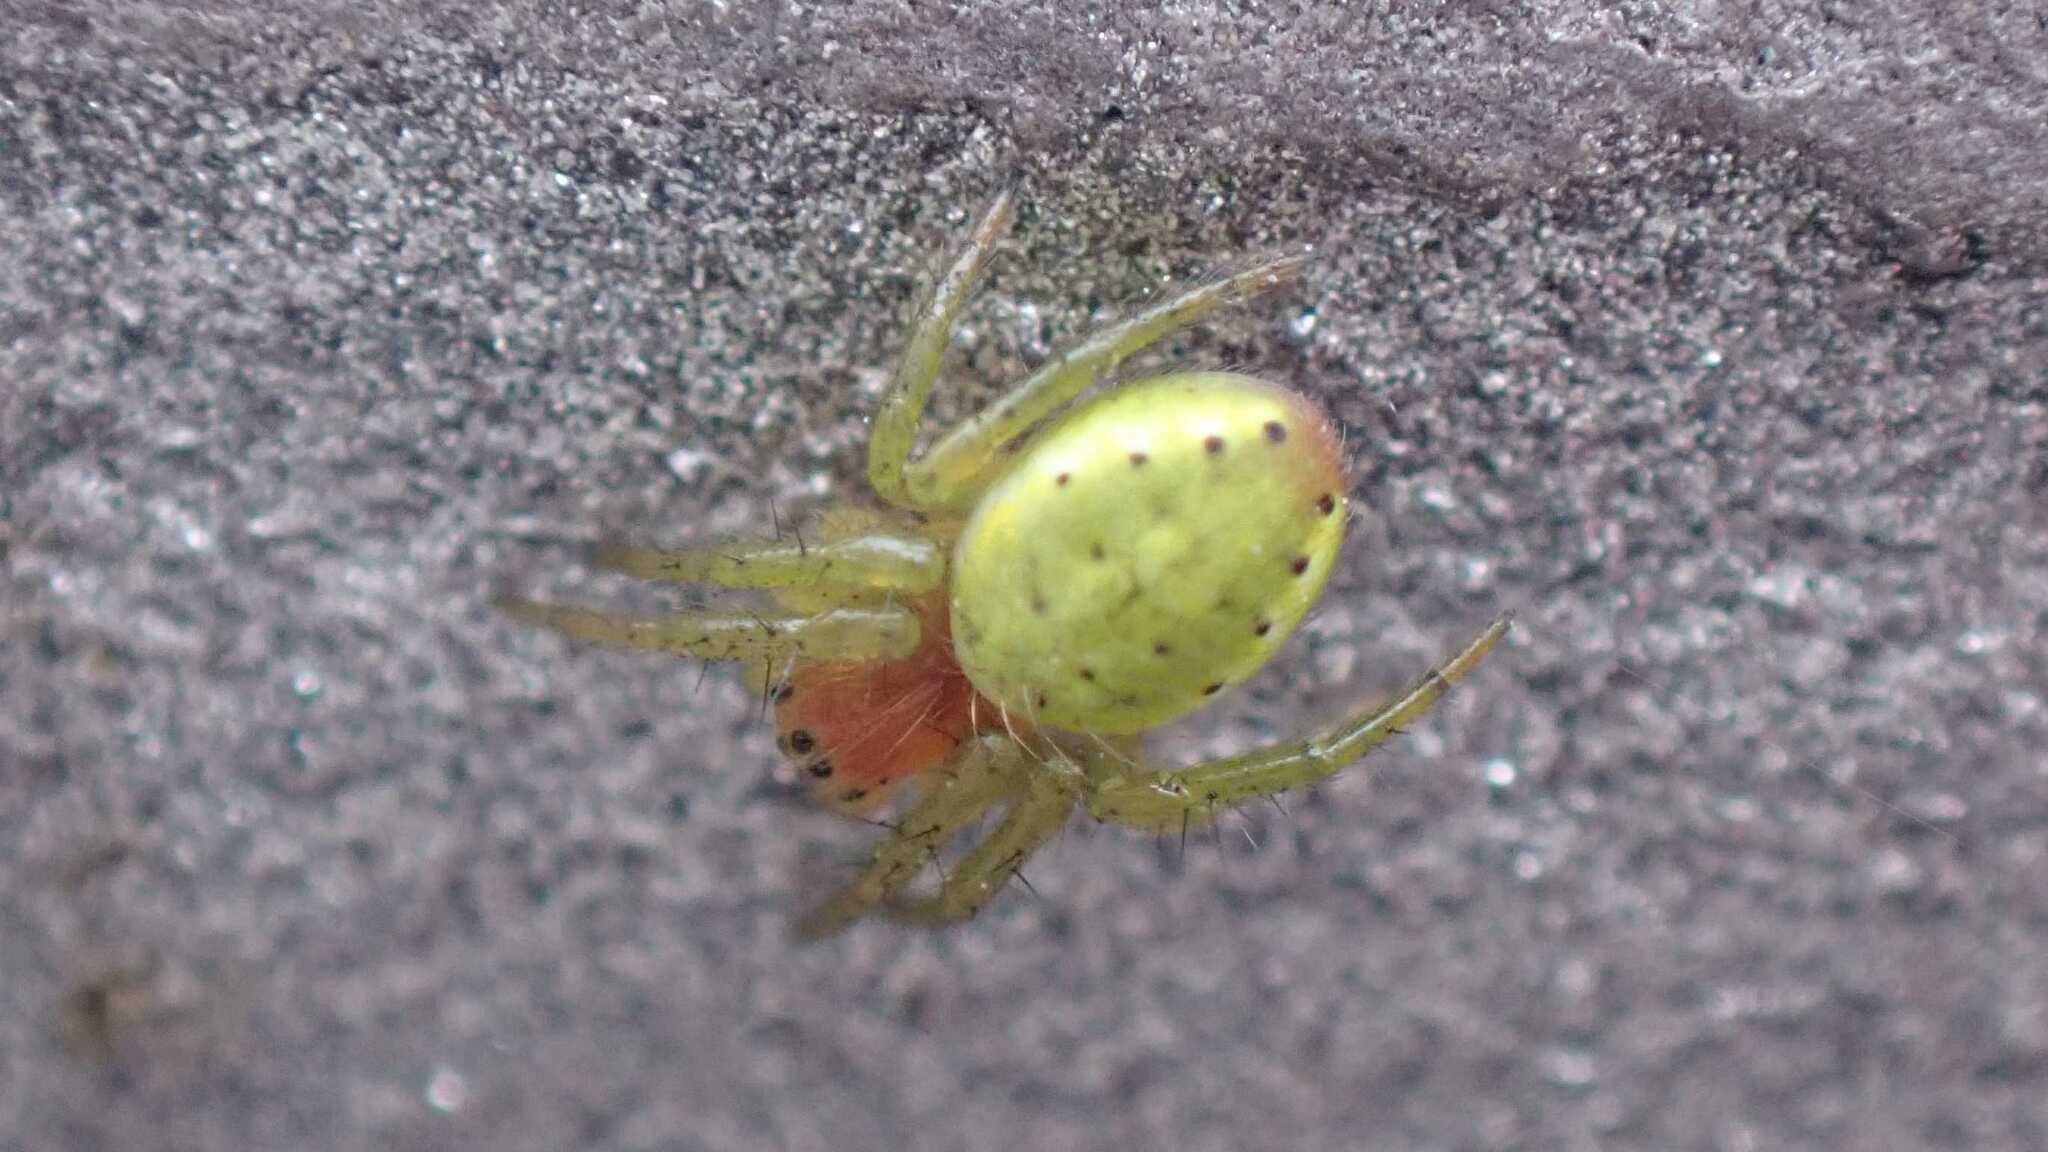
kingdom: Animalia
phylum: Arthropoda
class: Arachnida
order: Araneae
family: Araneidae
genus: Araniella
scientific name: Araniella
